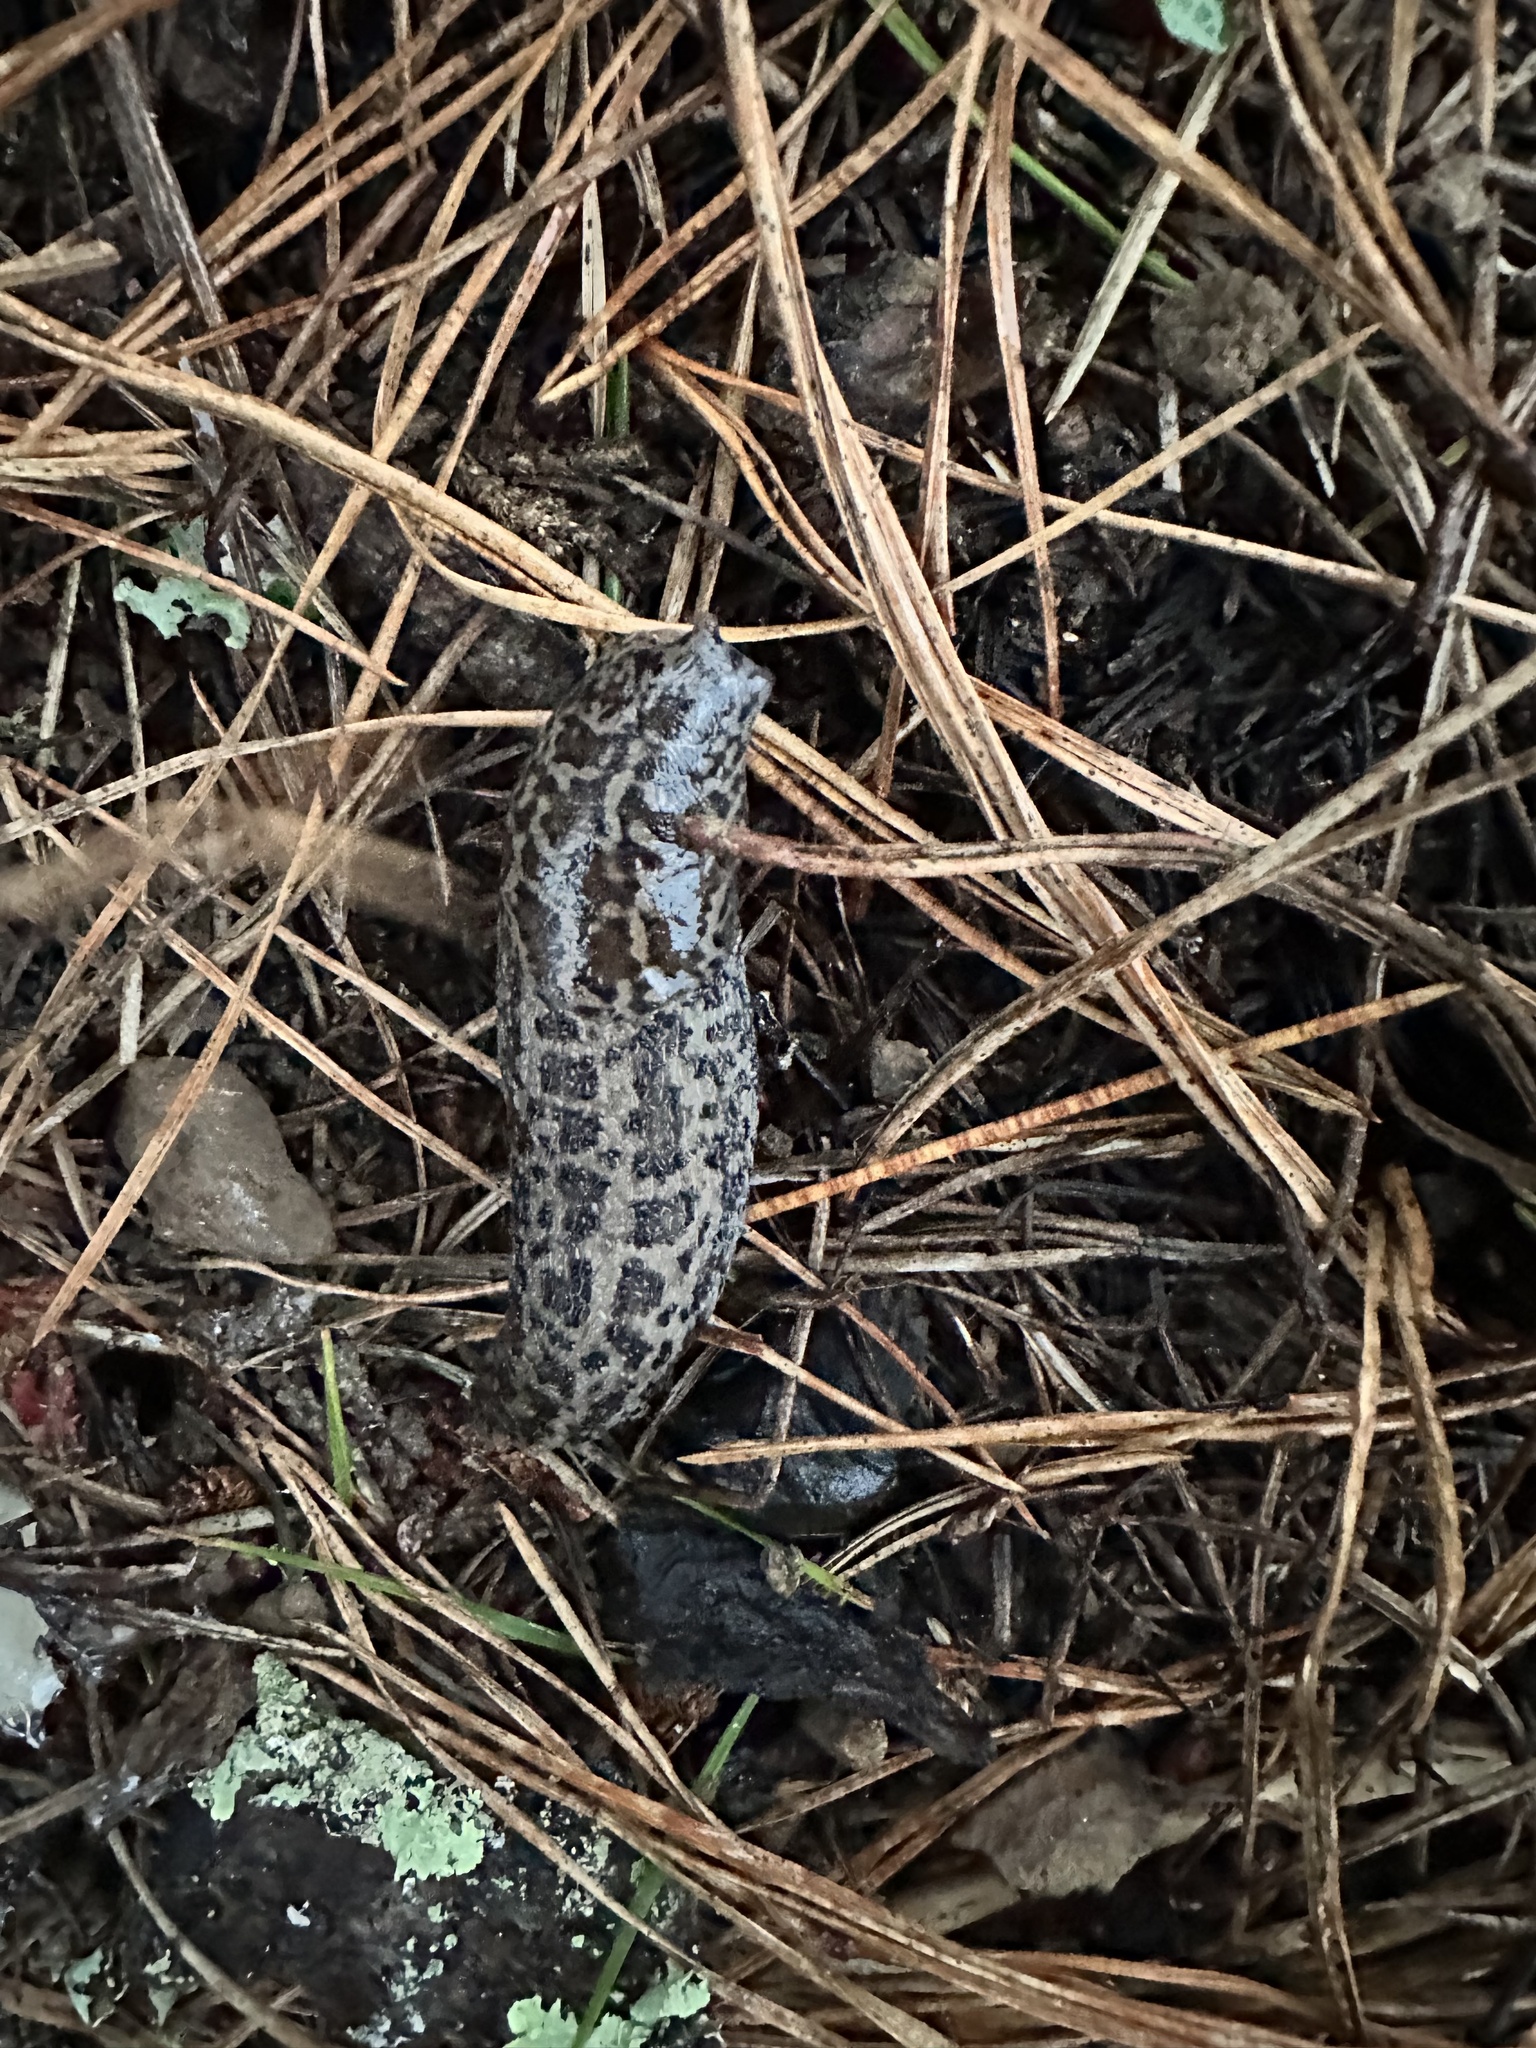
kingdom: Animalia
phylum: Mollusca
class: Gastropoda
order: Stylommatophora
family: Limacidae
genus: Limax
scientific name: Limax maximus
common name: Great grey slug
